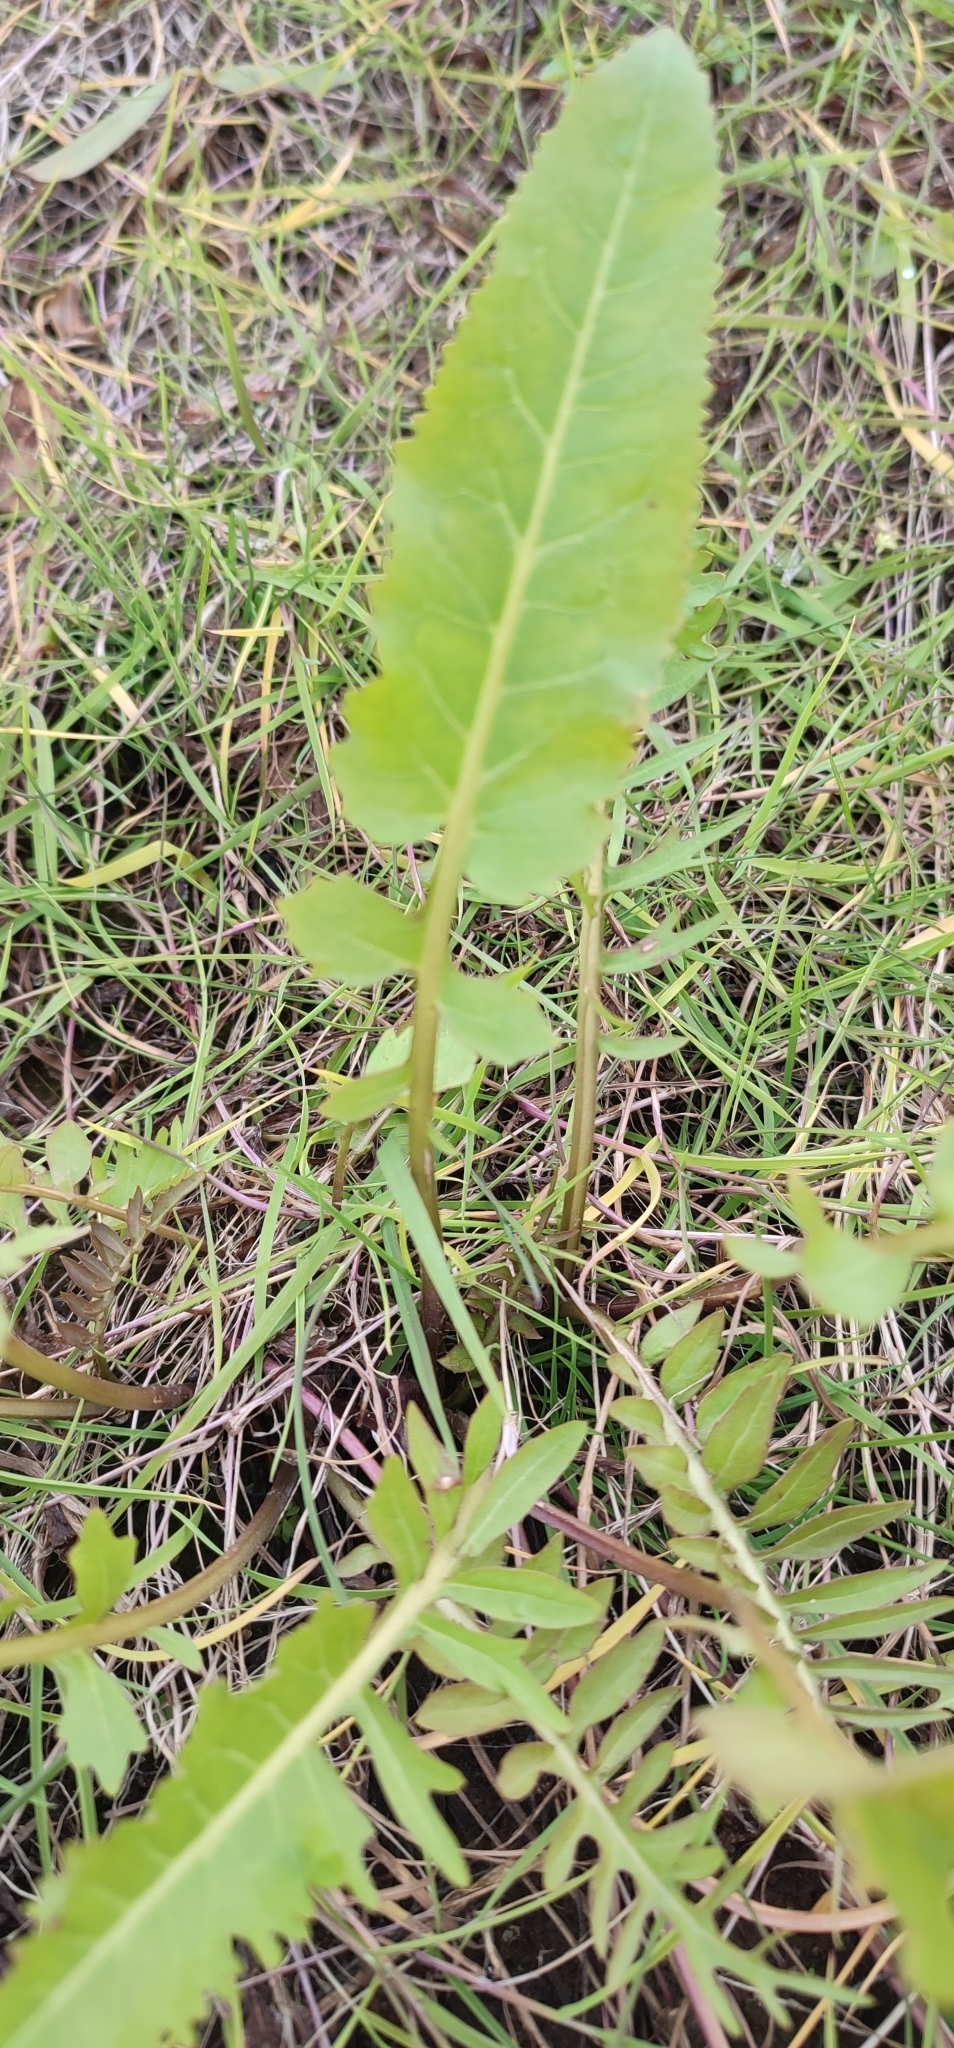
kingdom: Plantae
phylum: Tracheophyta
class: Magnoliopsida
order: Brassicales
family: Brassicaceae
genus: Rorippa
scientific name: Rorippa amphibia
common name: Great yellow-cress
